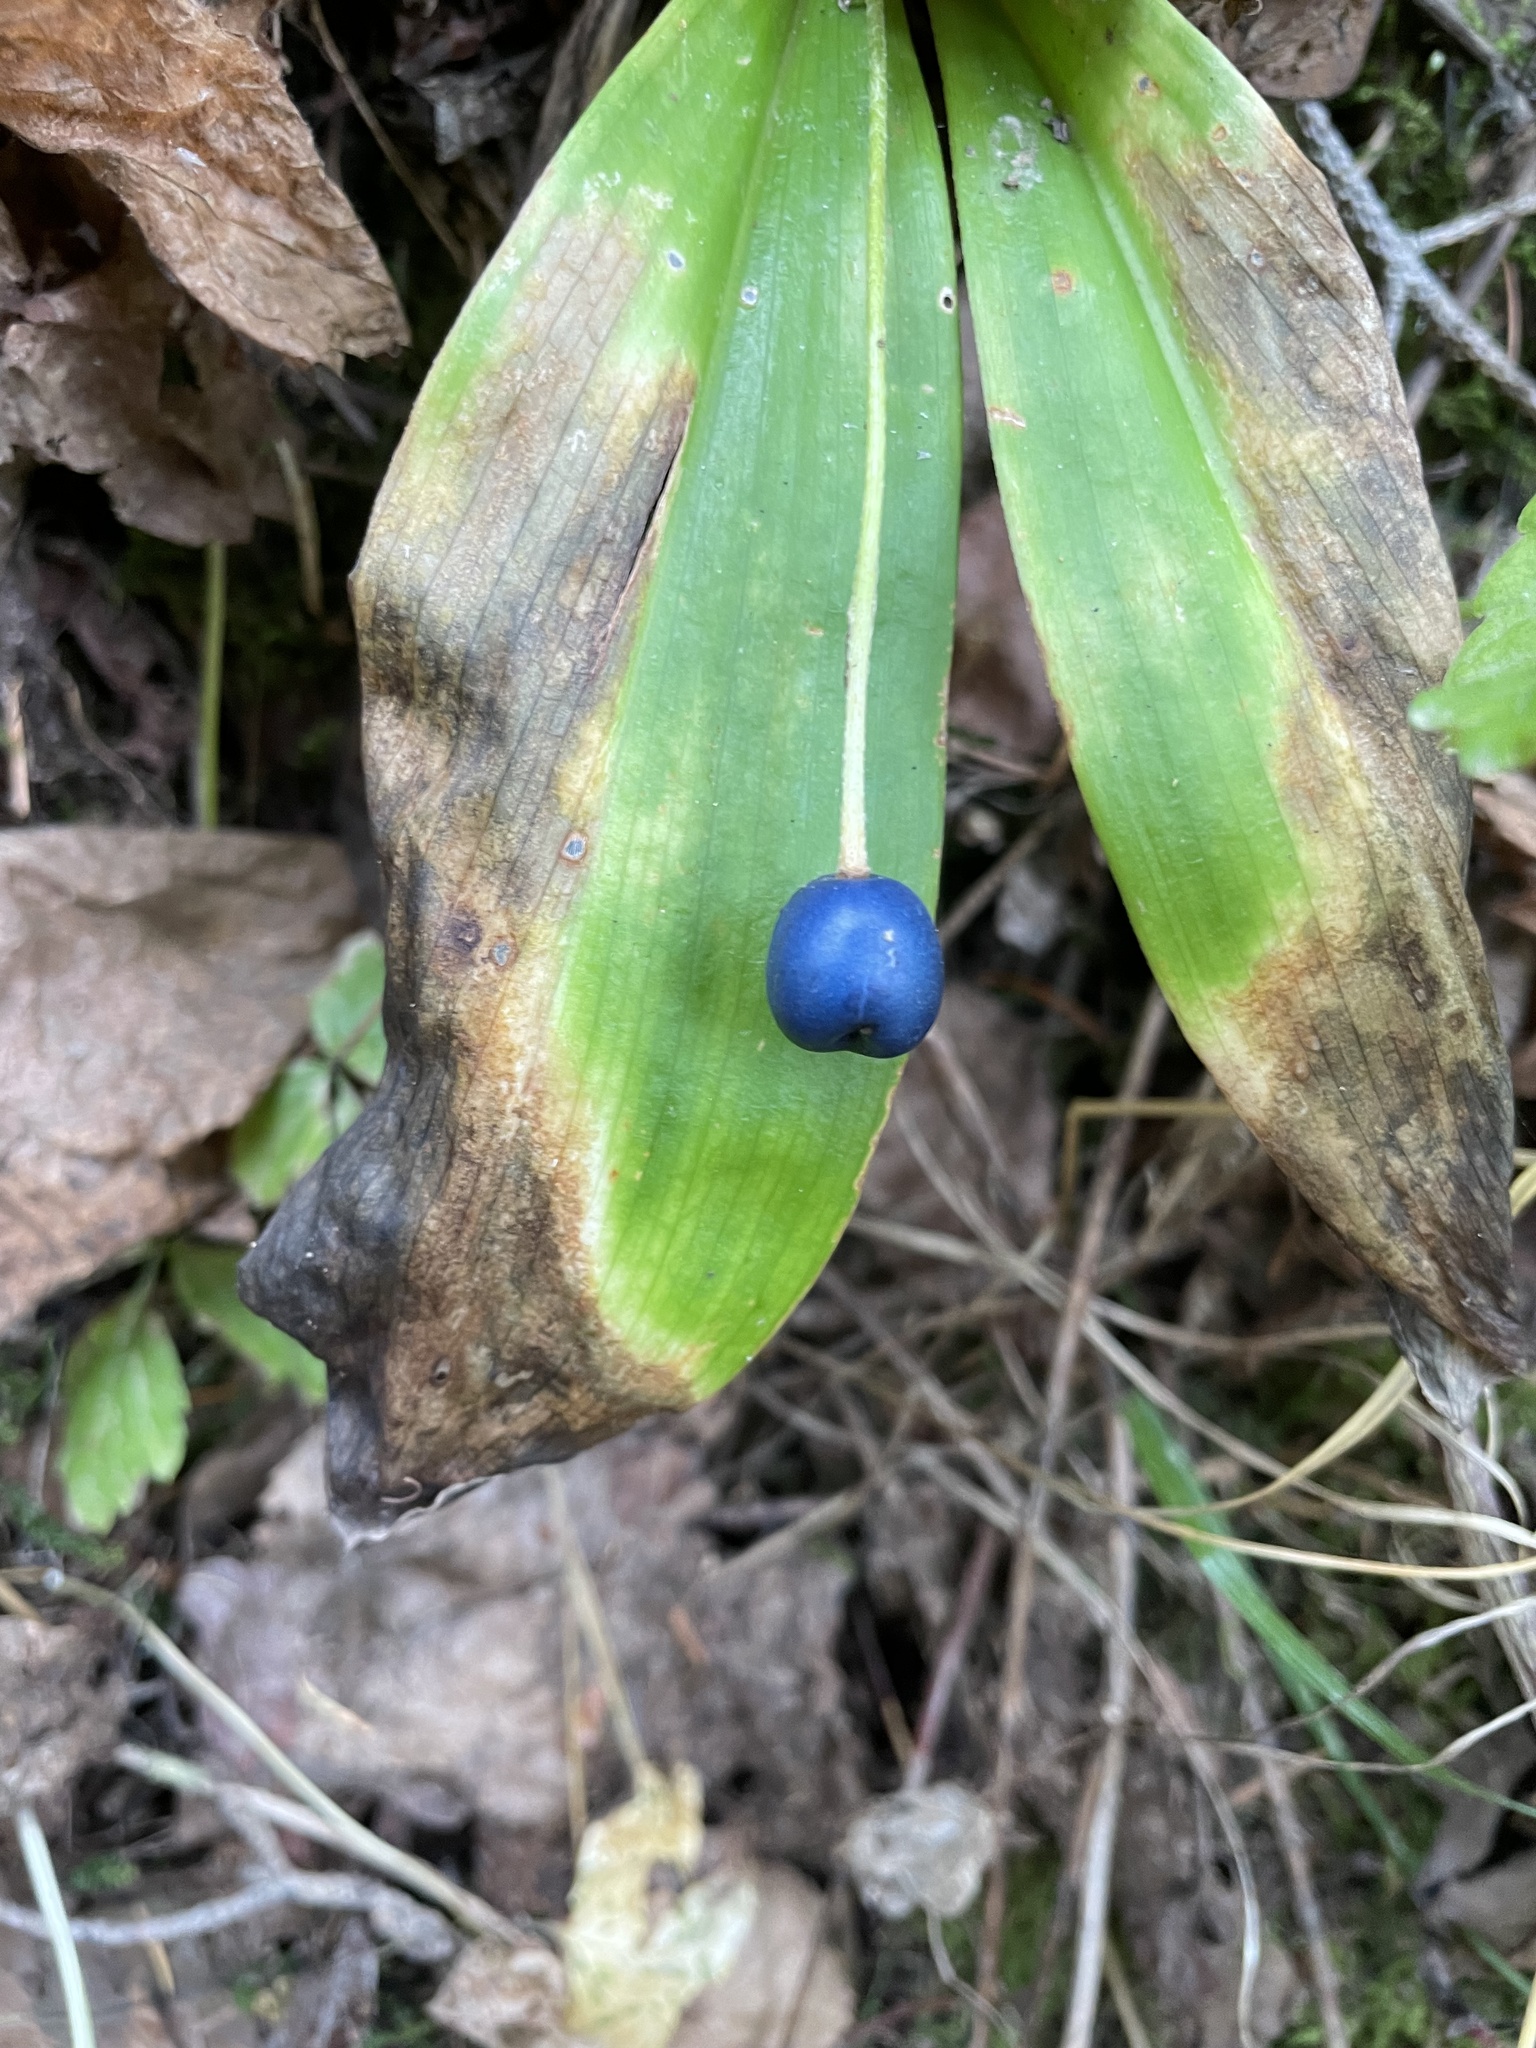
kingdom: Plantae
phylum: Tracheophyta
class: Liliopsida
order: Liliales
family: Liliaceae
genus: Clintonia
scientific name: Clintonia uniflora
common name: Queen's cup
